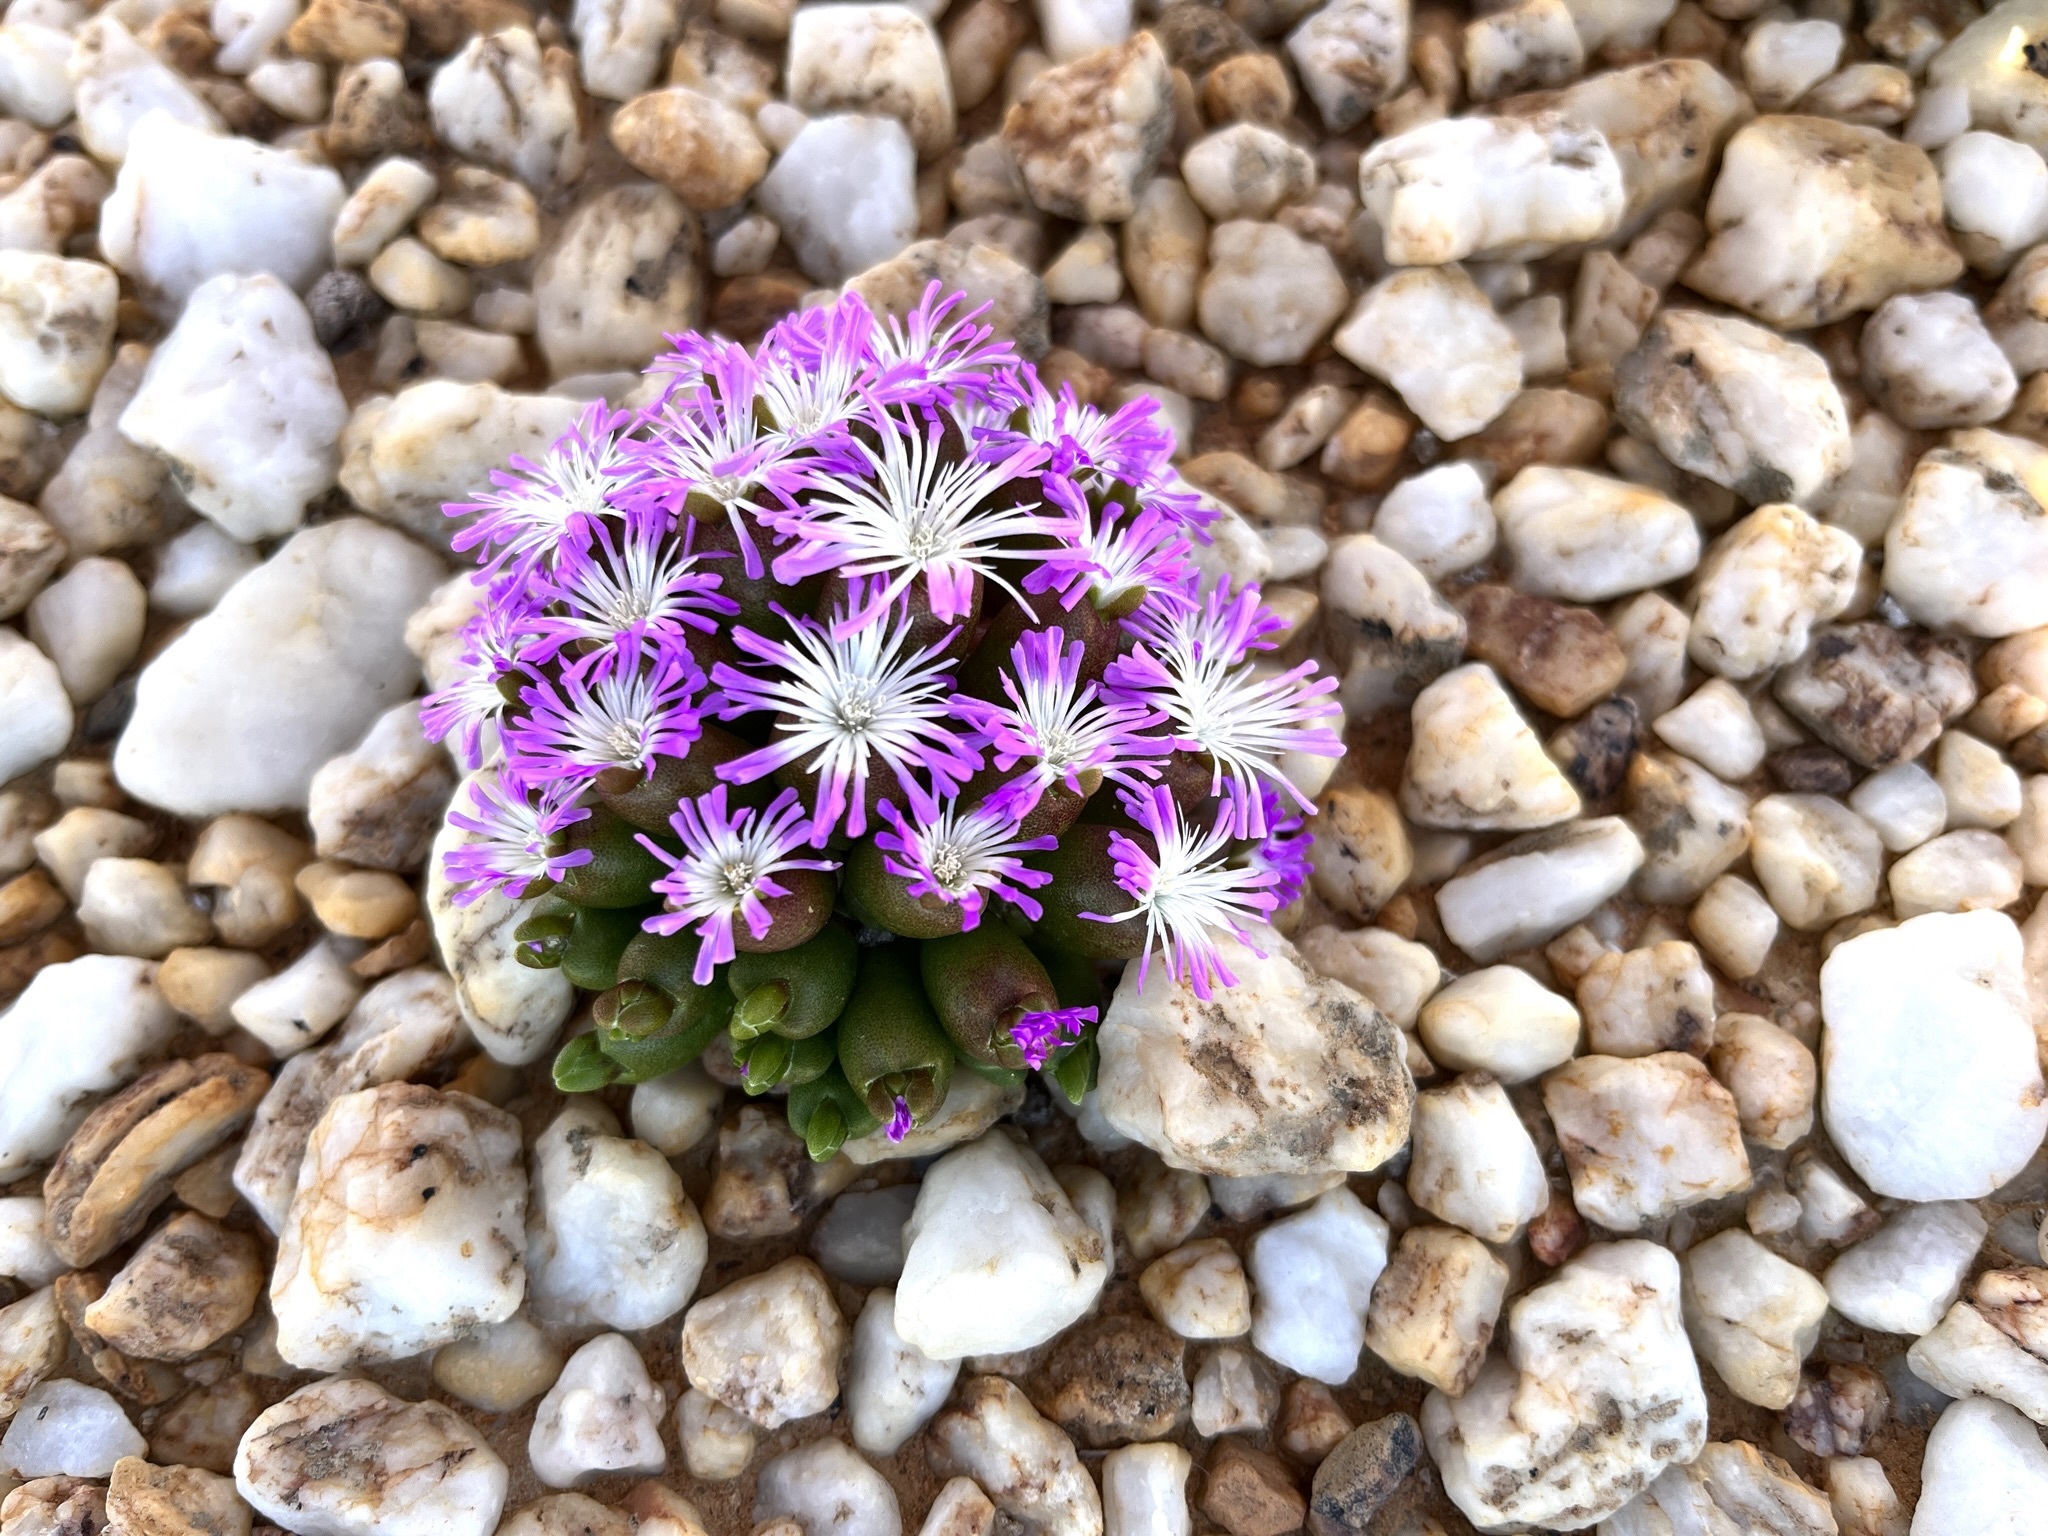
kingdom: Plantae
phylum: Tracheophyta
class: Magnoliopsida
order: Caryophyllales
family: Aizoaceae
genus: Oophytum
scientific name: Oophytum oviforme
